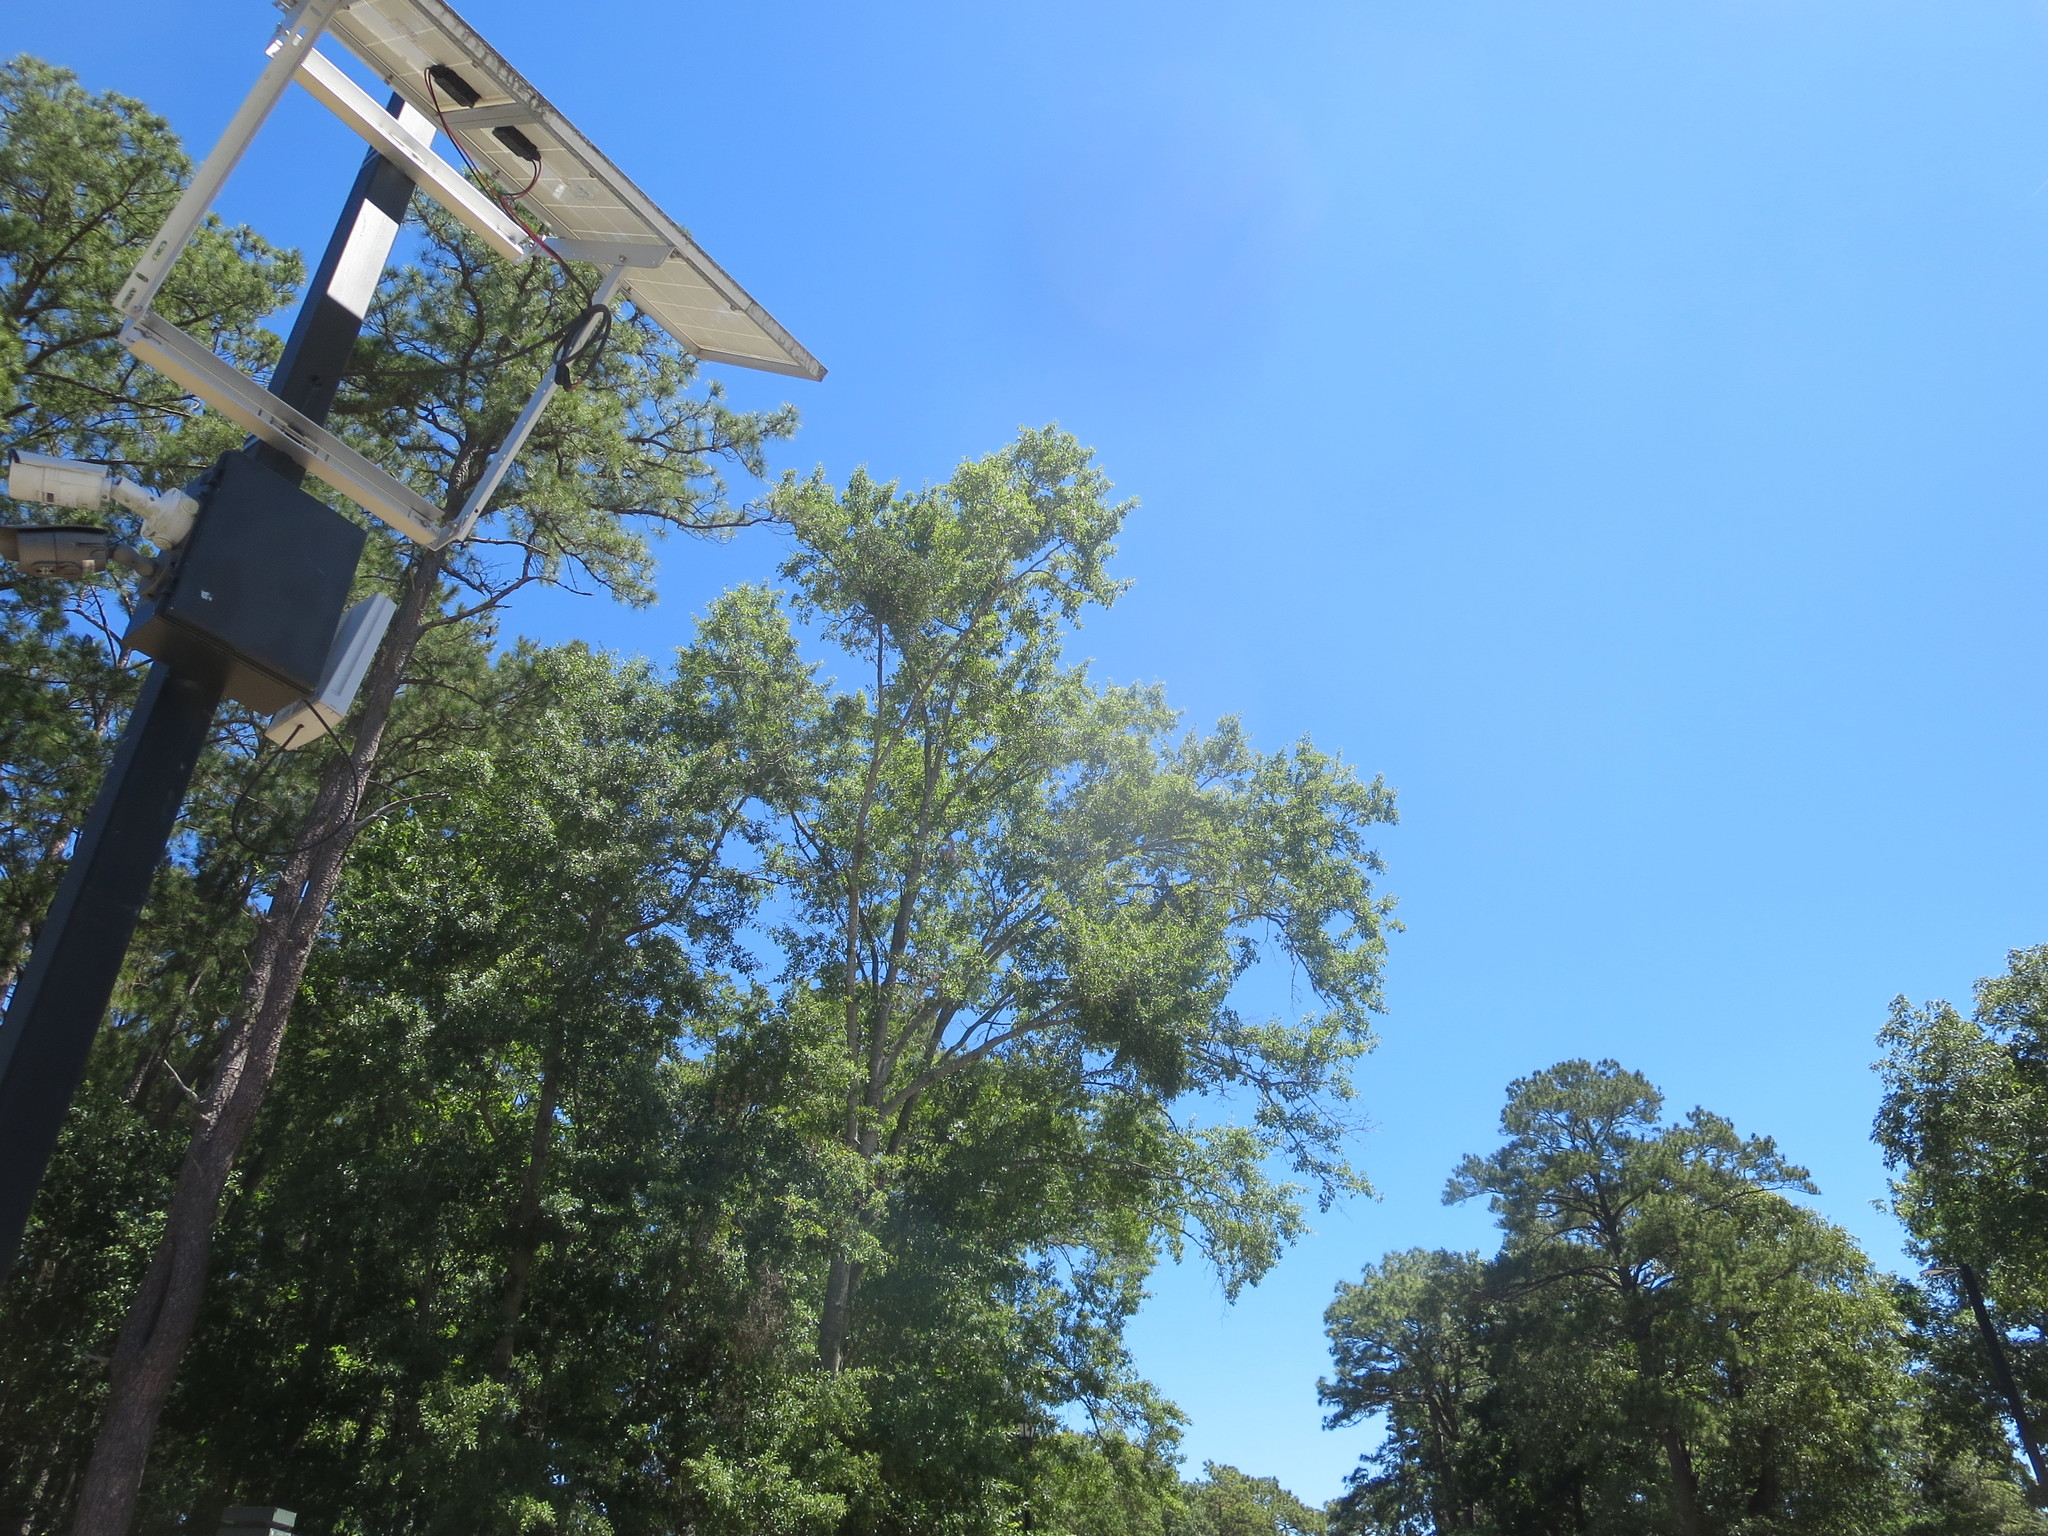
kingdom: Plantae
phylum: Tracheophyta
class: Magnoliopsida
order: Santalales
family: Viscaceae
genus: Phoradendron
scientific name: Phoradendron leucarpum
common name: Pacific mistletoe
